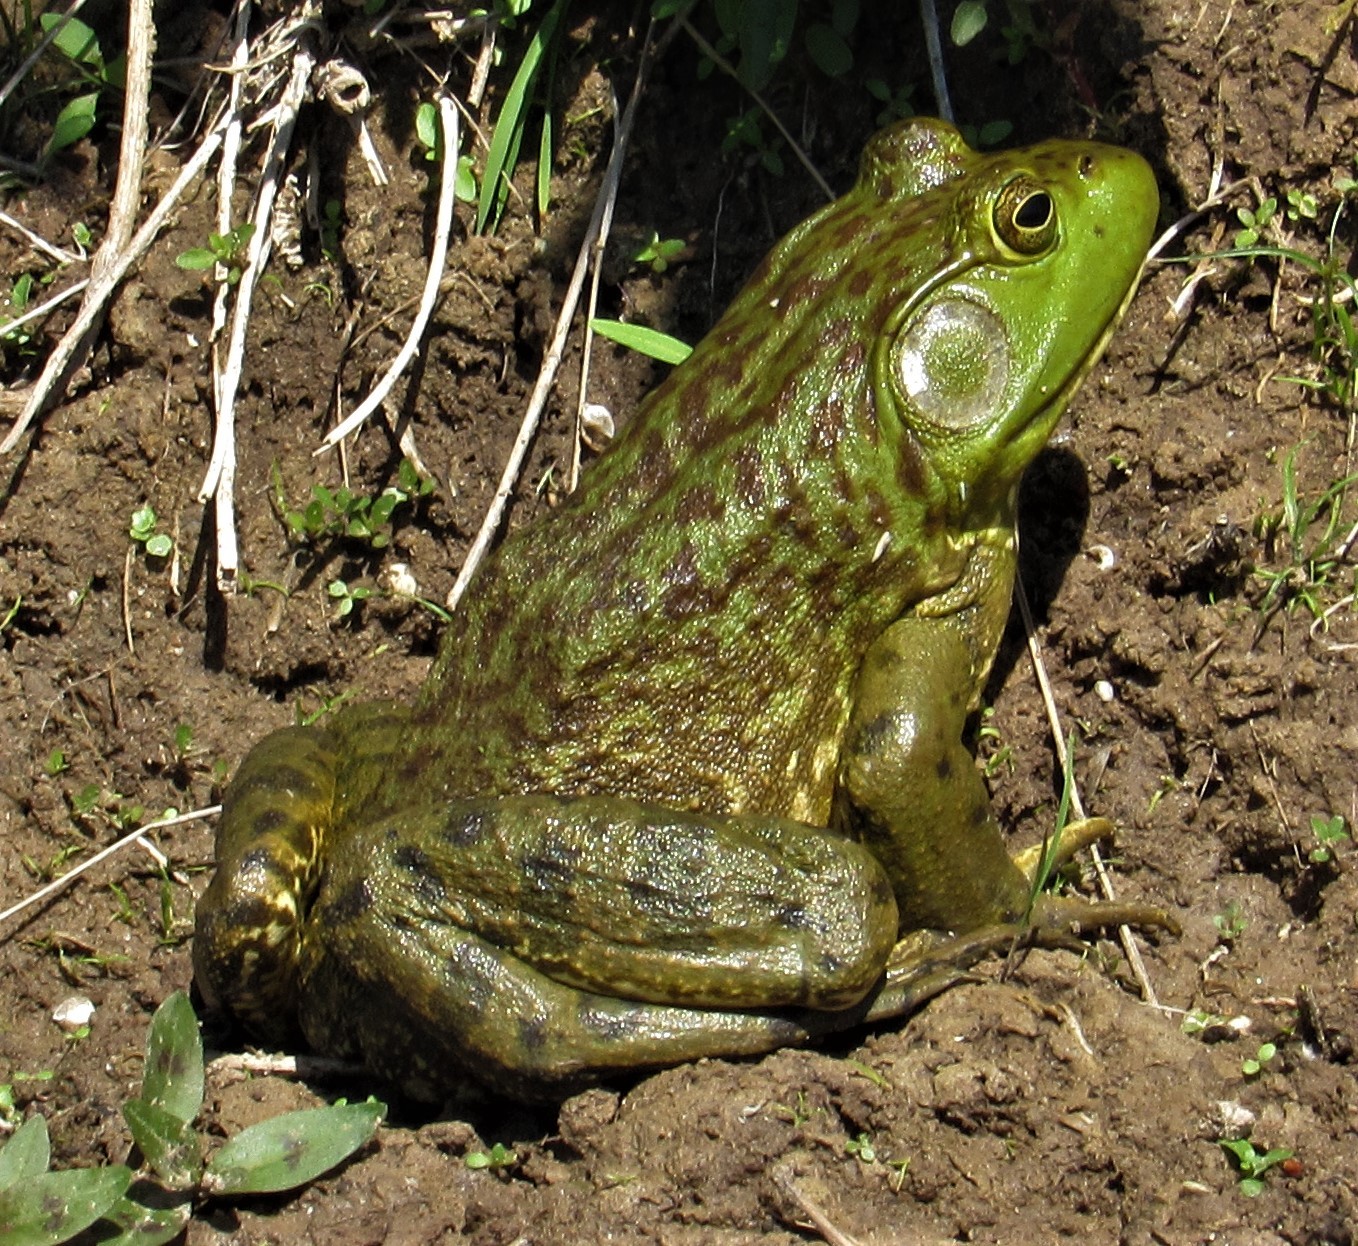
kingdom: Animalia
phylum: Chordata
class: Amphibia
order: Anura
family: Ranidae
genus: Lithobates
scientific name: Lithobates catesbeianus
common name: American bullfrog
